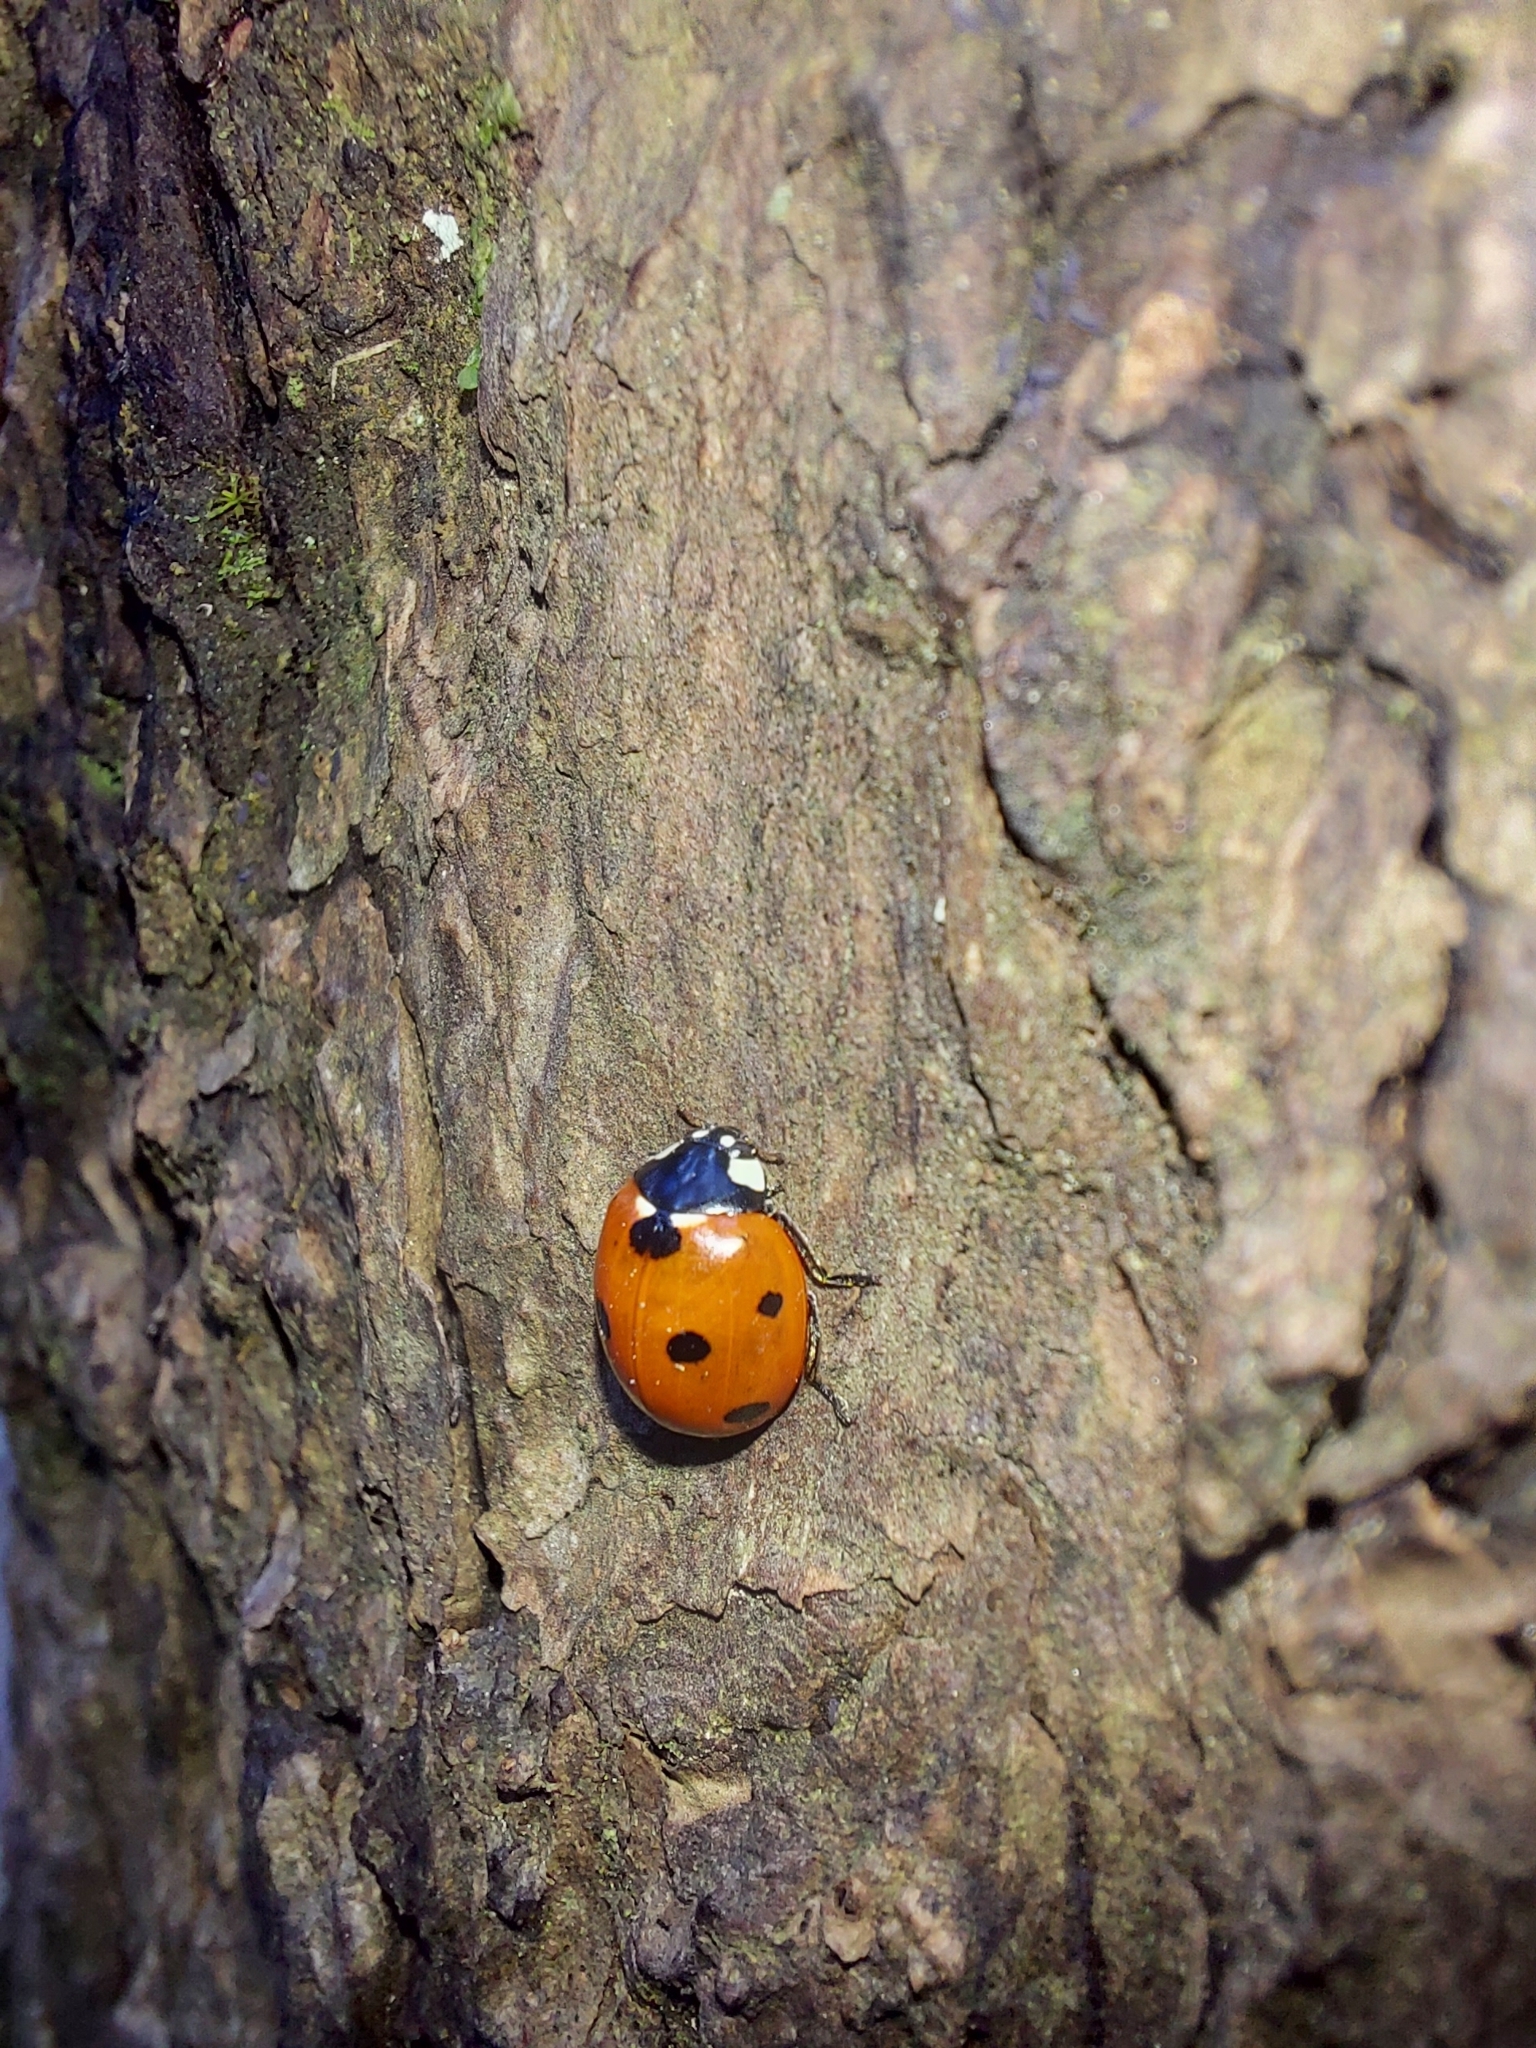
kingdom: Animalia
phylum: Arthropoda
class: Insecta
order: Coleoptera
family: Coccinellidae
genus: Coccinella
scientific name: Coccinella septempunctata
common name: Sevenspotted lady beetle
